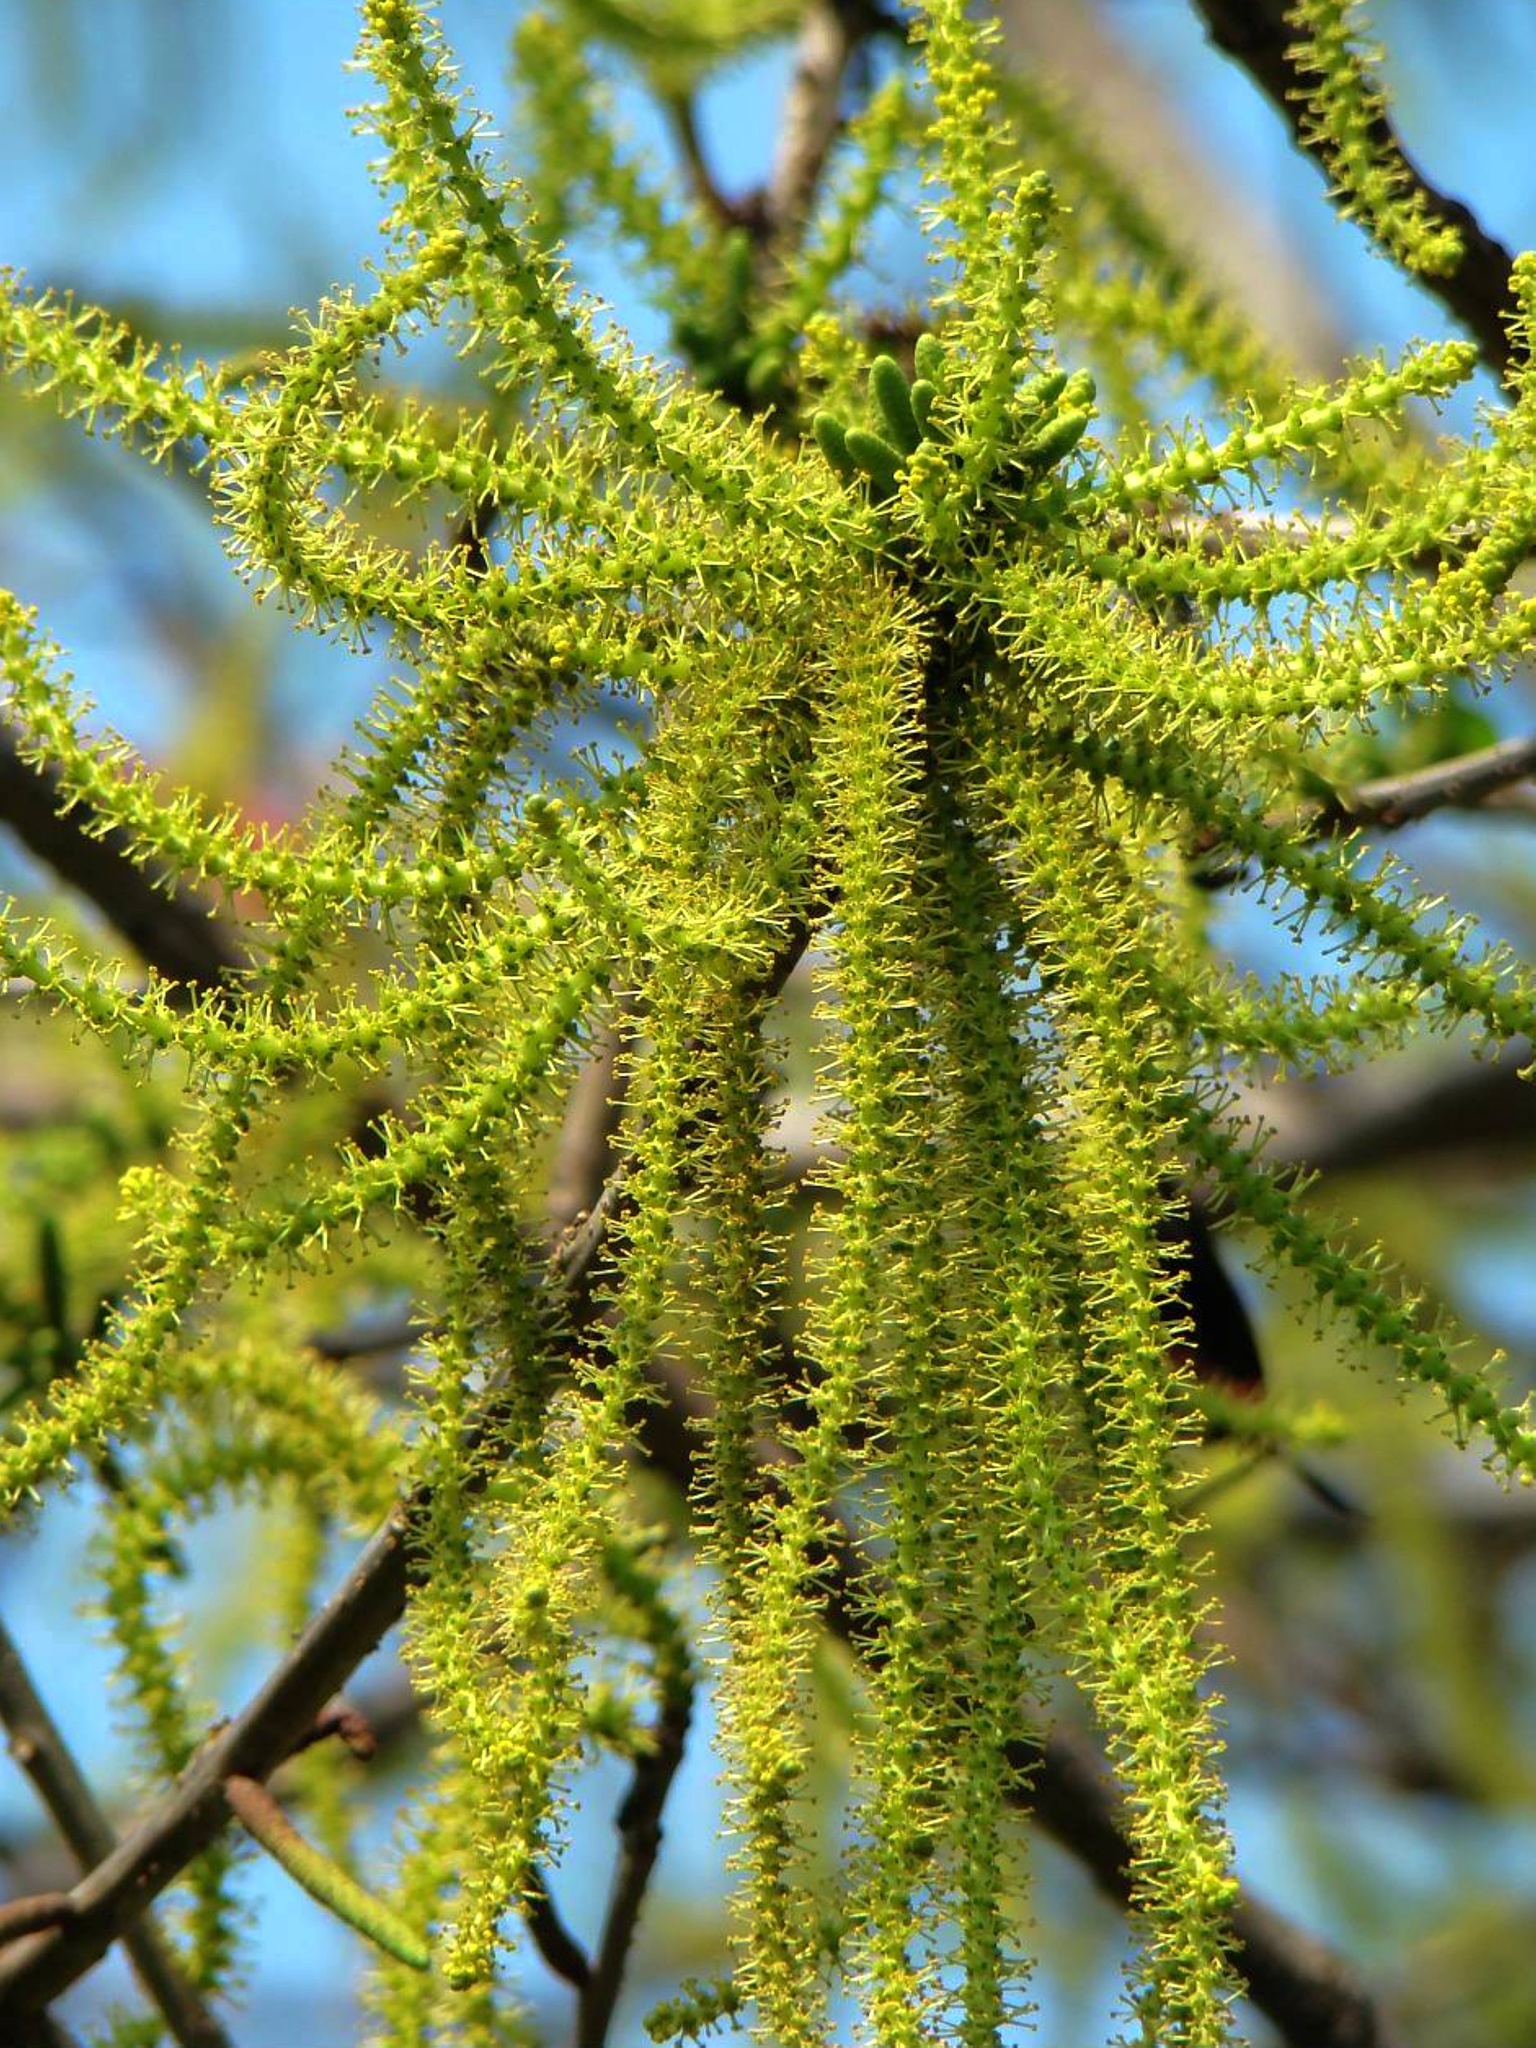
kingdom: Plantae
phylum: Tracheophyta
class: Magnoliopsida
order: Malpighiales
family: Euphorbiaceae
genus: Excoecaria
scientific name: Excoecaria agallocha
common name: River poisontree
